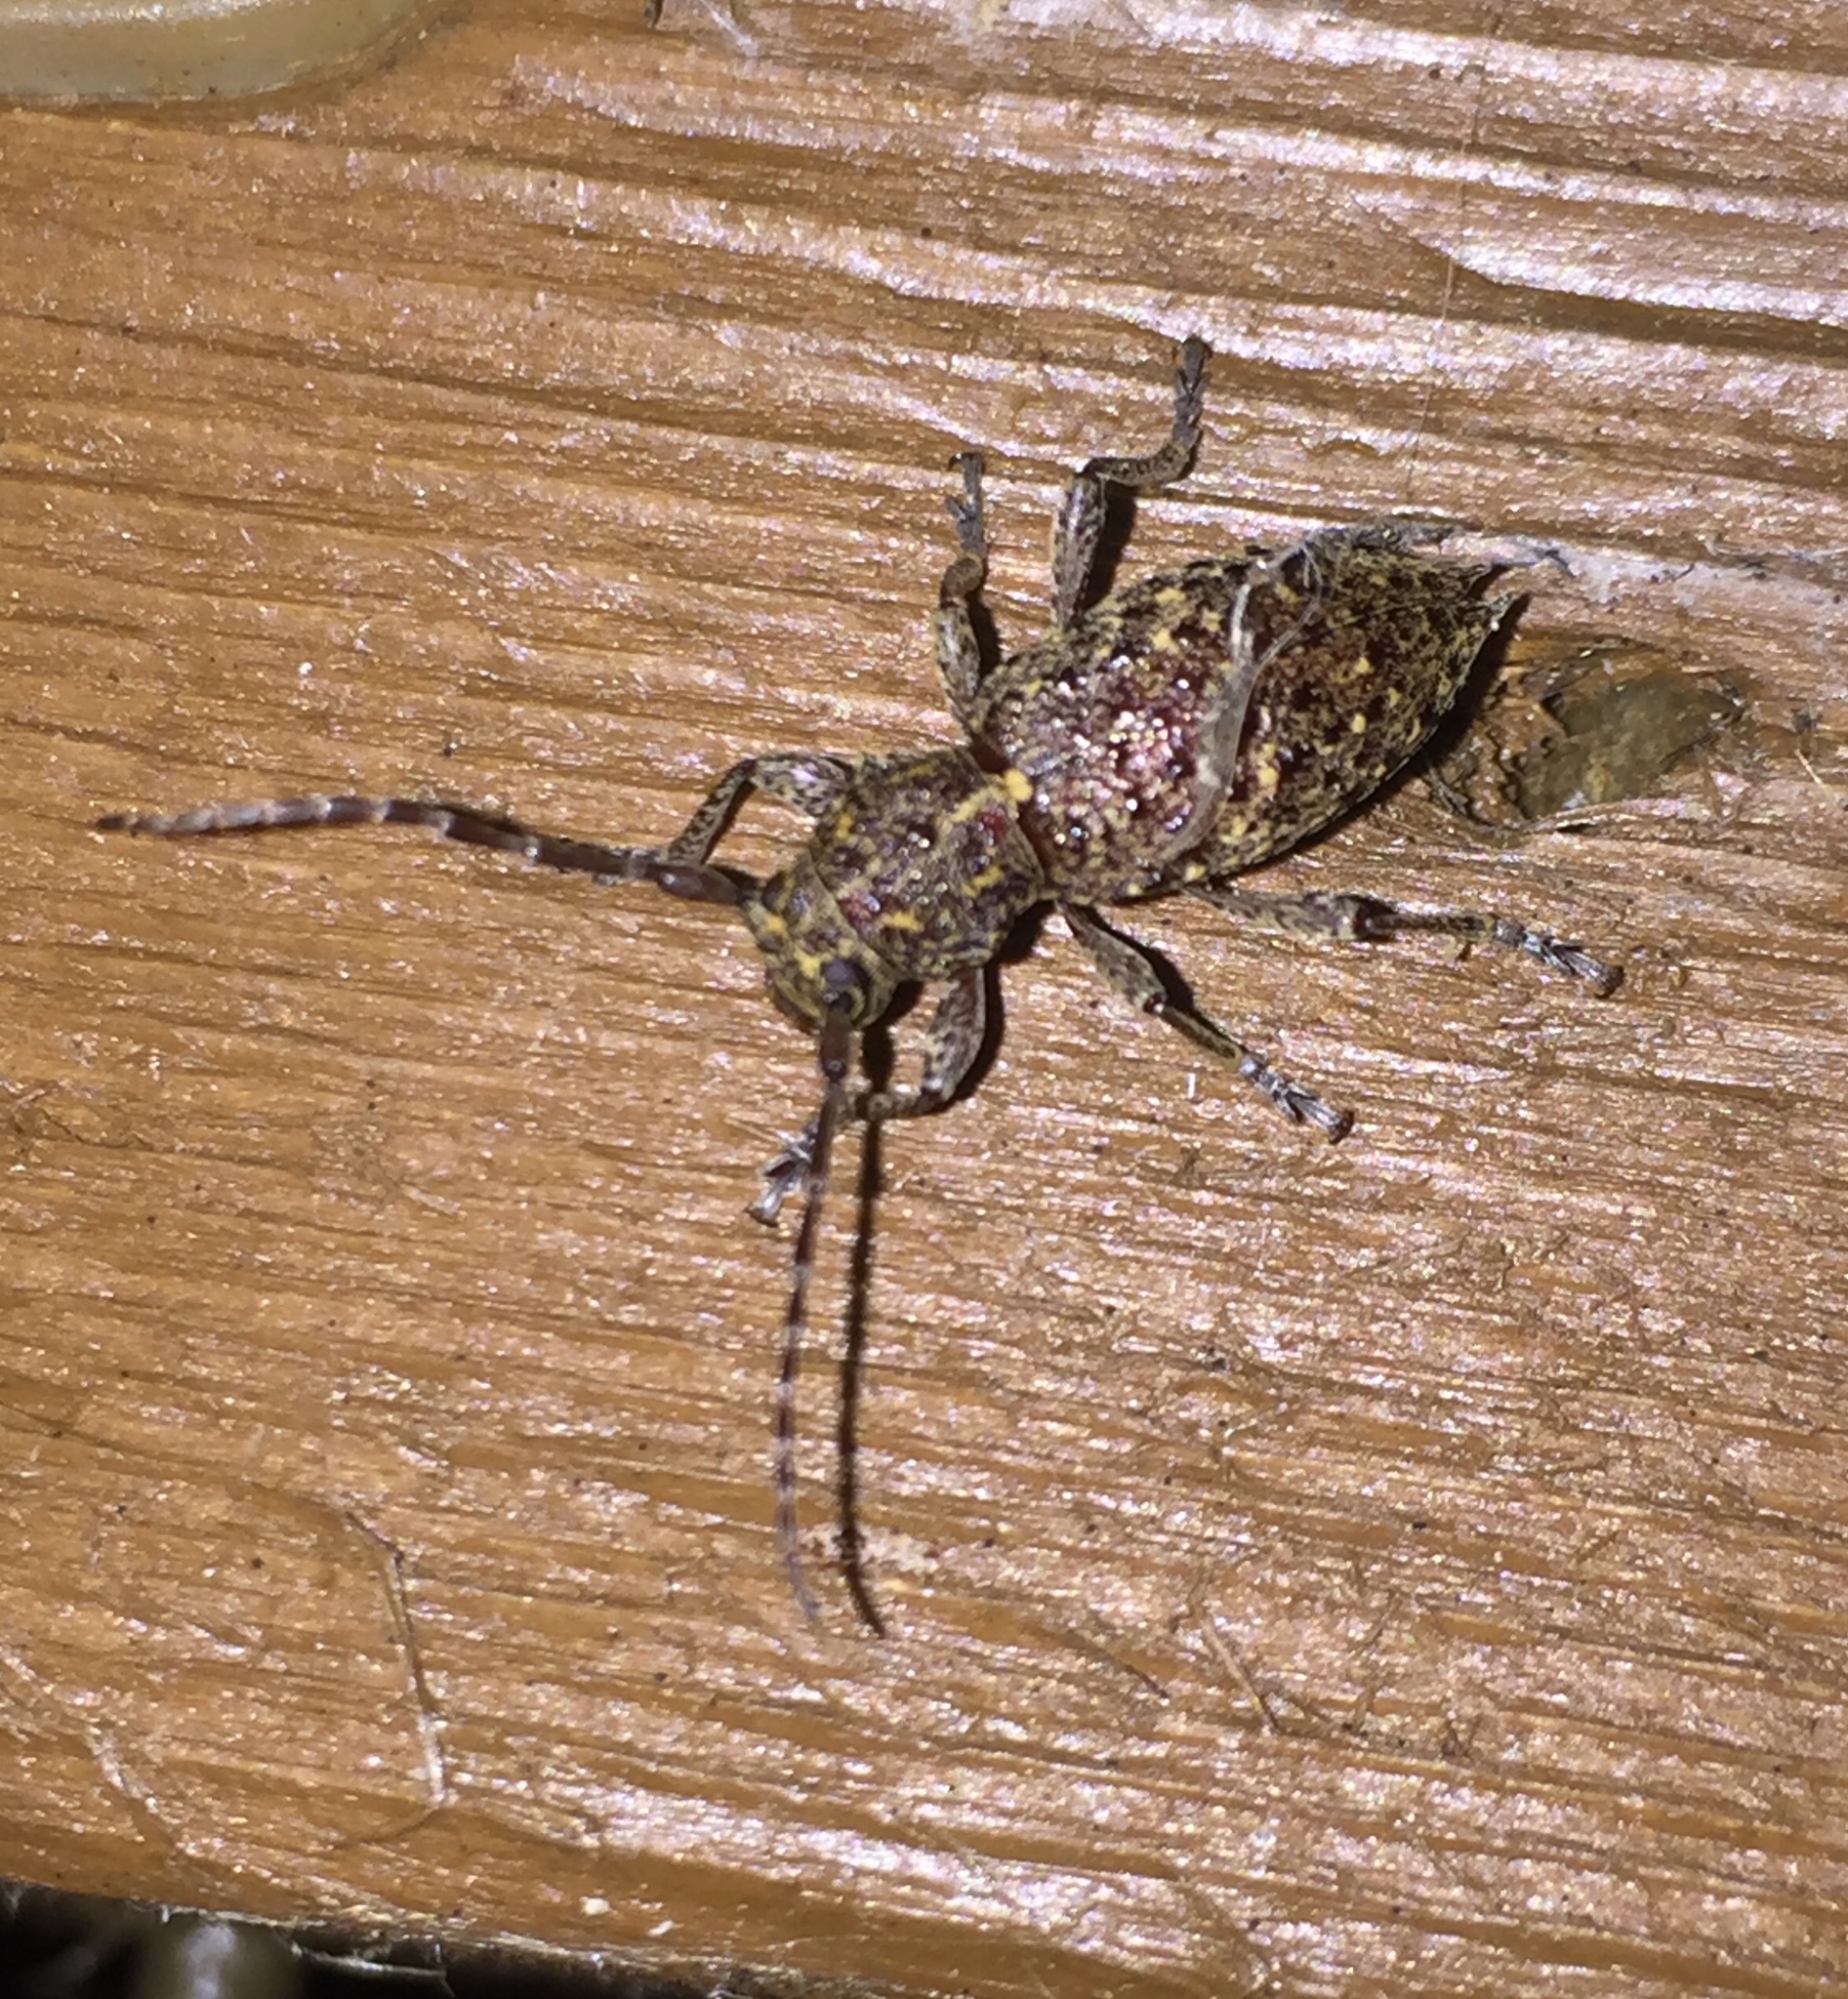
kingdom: Animalia
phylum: Arthropoda
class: Insecta
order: Coleoptera
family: Cerambycidae
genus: Plectrura
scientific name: Plectrura spinicauda
